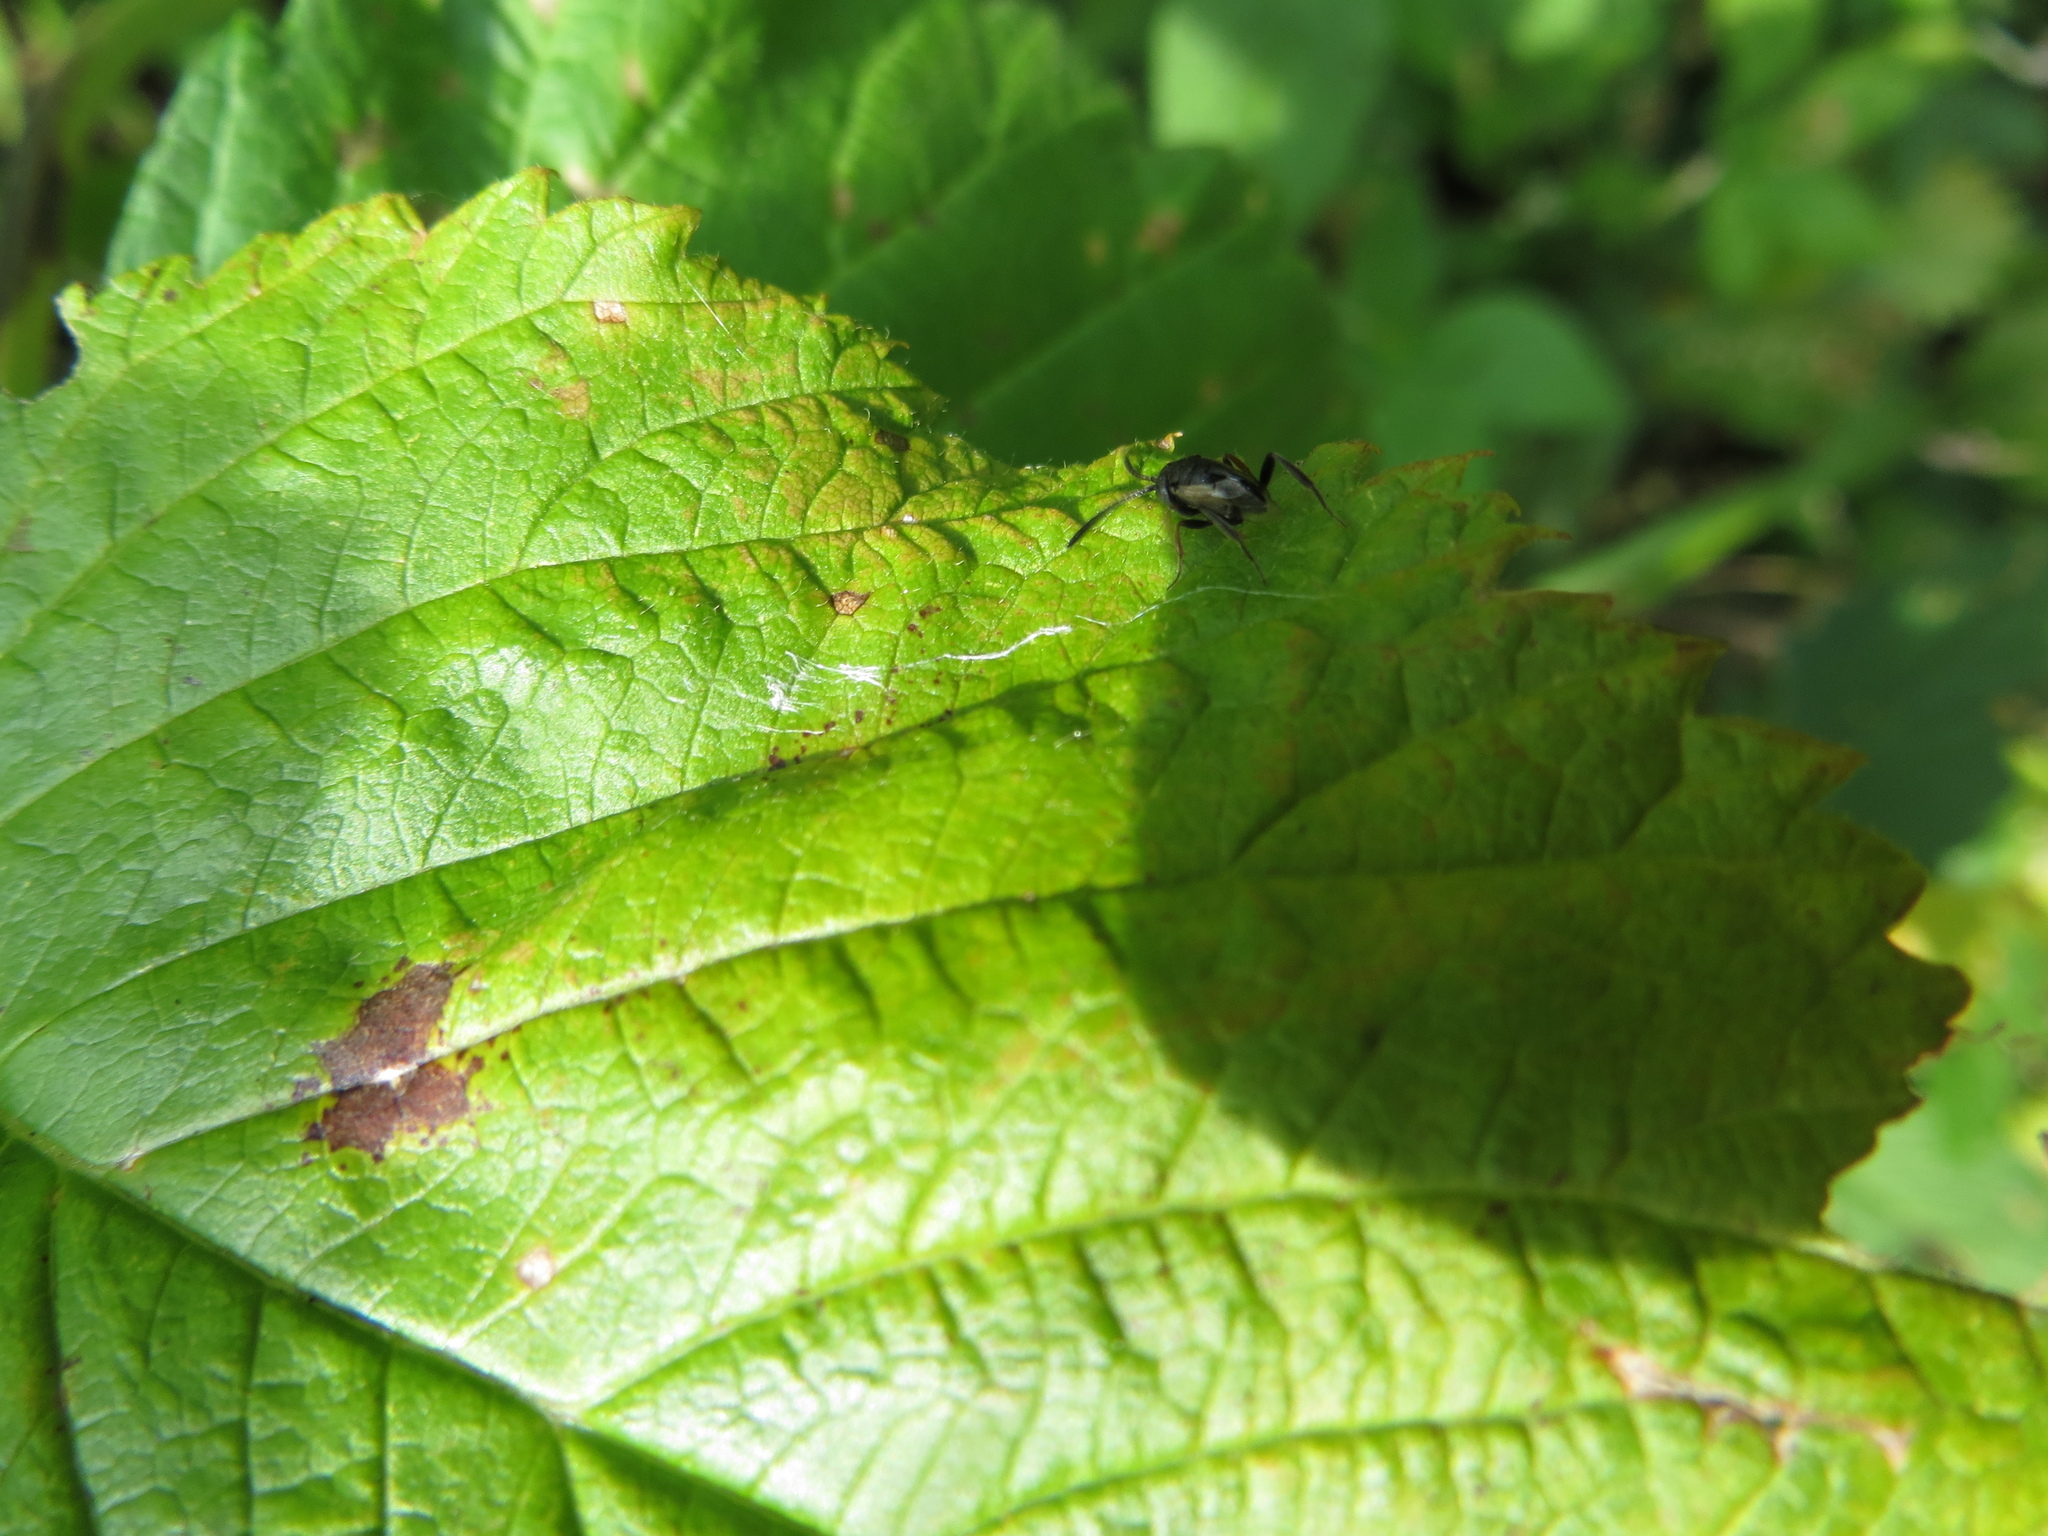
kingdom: Animalia
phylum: Arthropoda
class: Insecta
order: Hymenoptera
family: Evaniidae
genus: Brachygaster
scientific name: Brachygaster minutus
